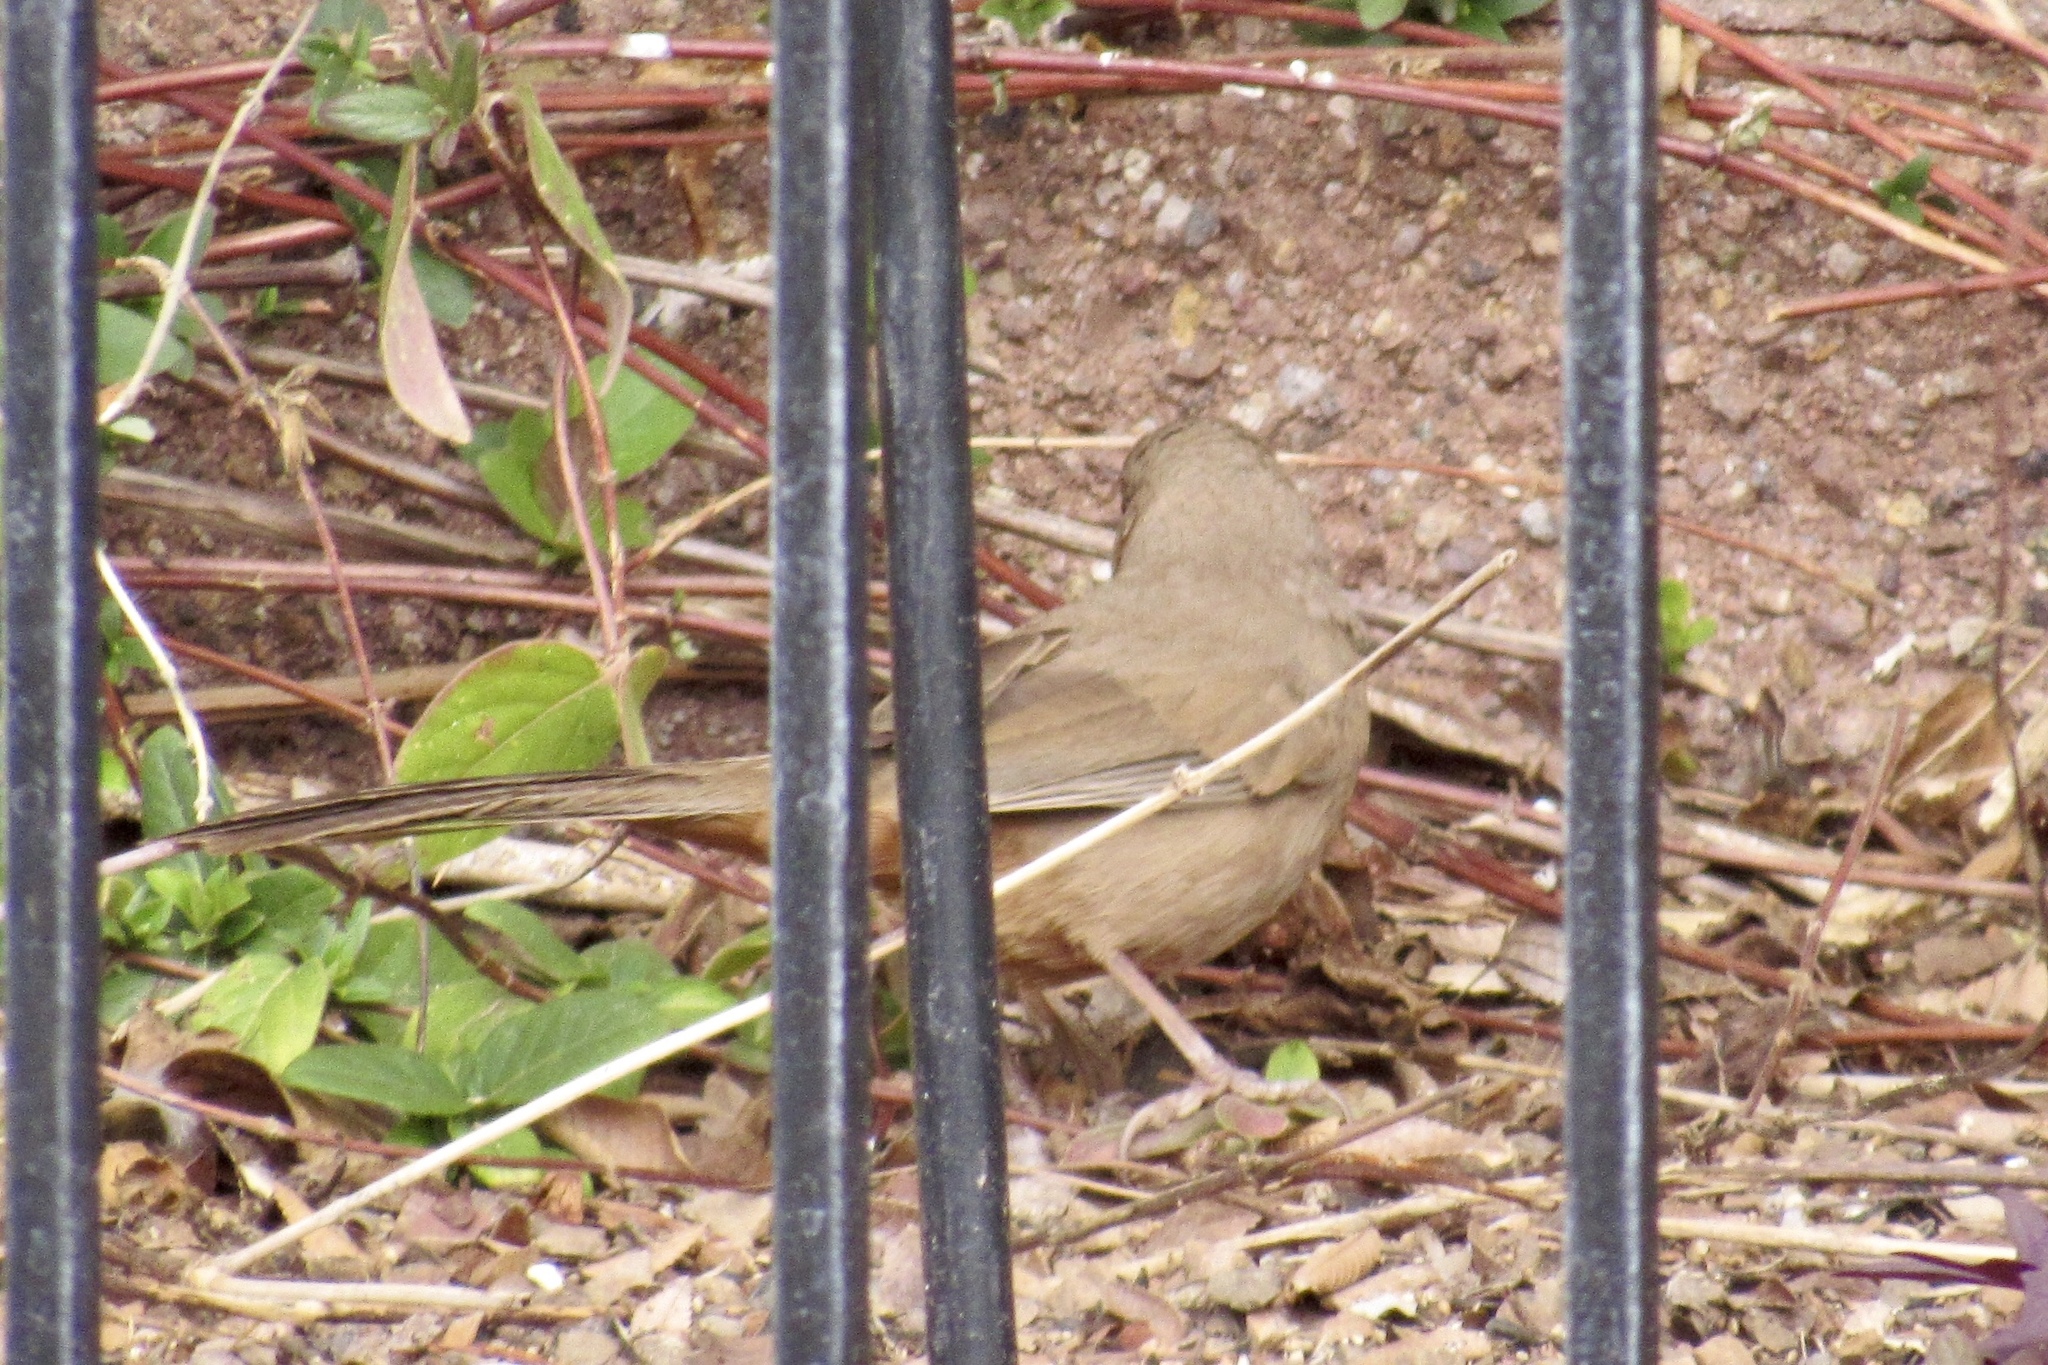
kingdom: Animalia
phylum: Chordata
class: Aves
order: Passeriformes
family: Passerellidae
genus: Melozone
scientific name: Melozone aberti
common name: Abert's towhee
